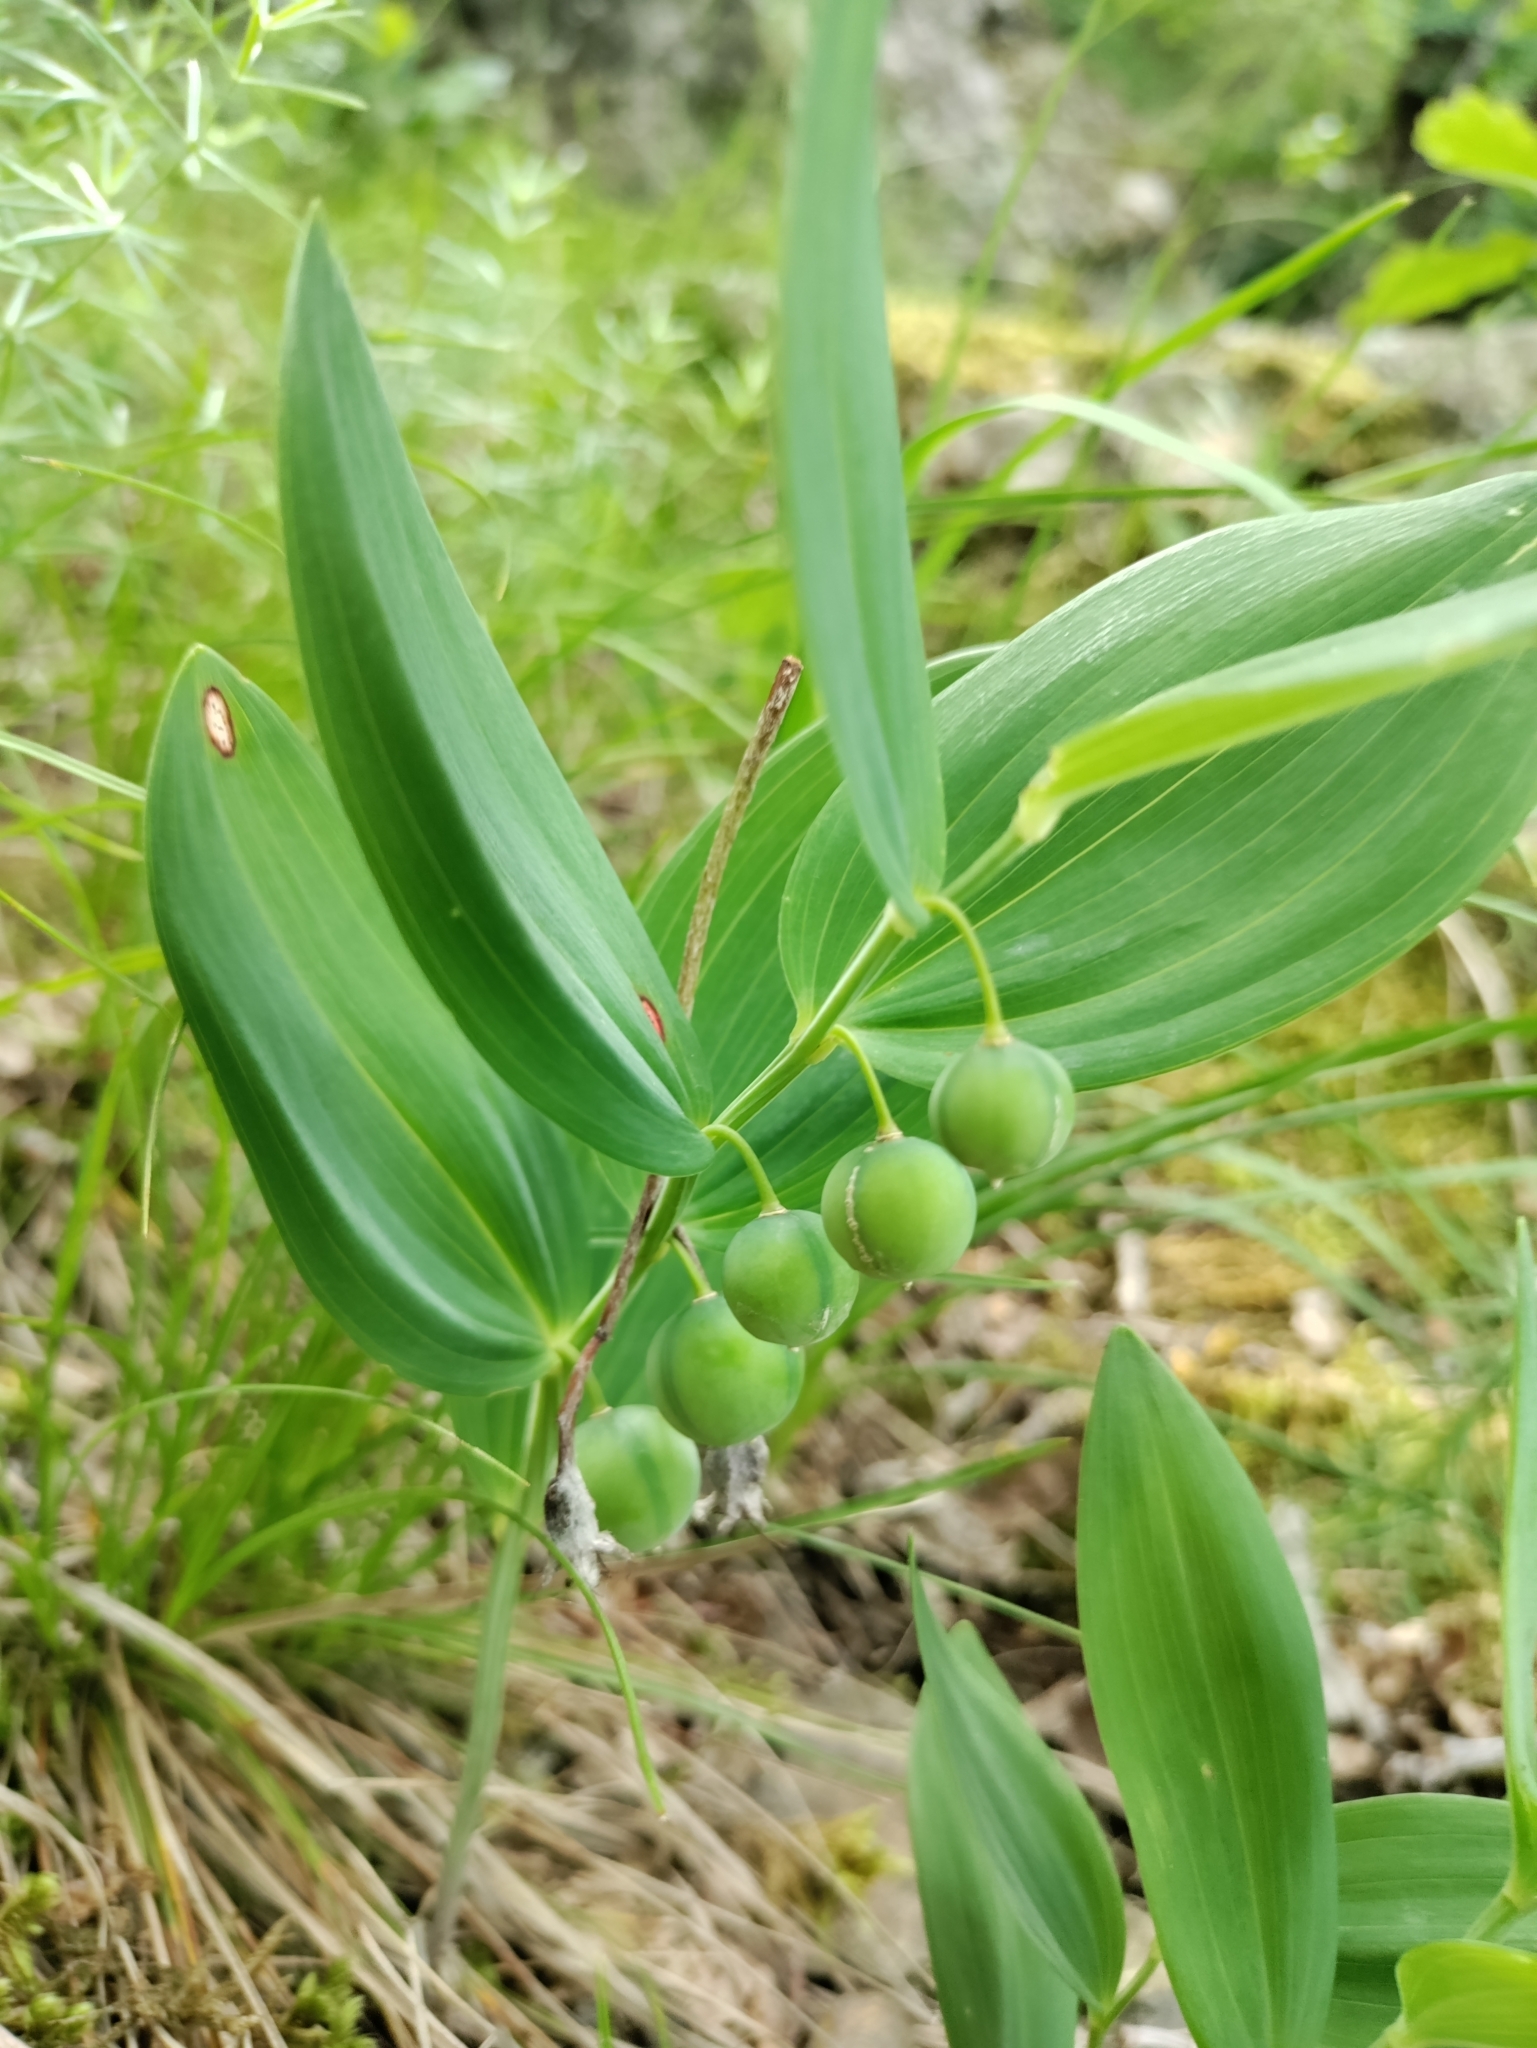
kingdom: Plantae
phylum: Tracheophyta
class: Liliopsida
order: Asparagales
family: Asparagaceae
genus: Polygonatum
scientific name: Polygonatum odoratum
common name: Angular solomon's-seal
